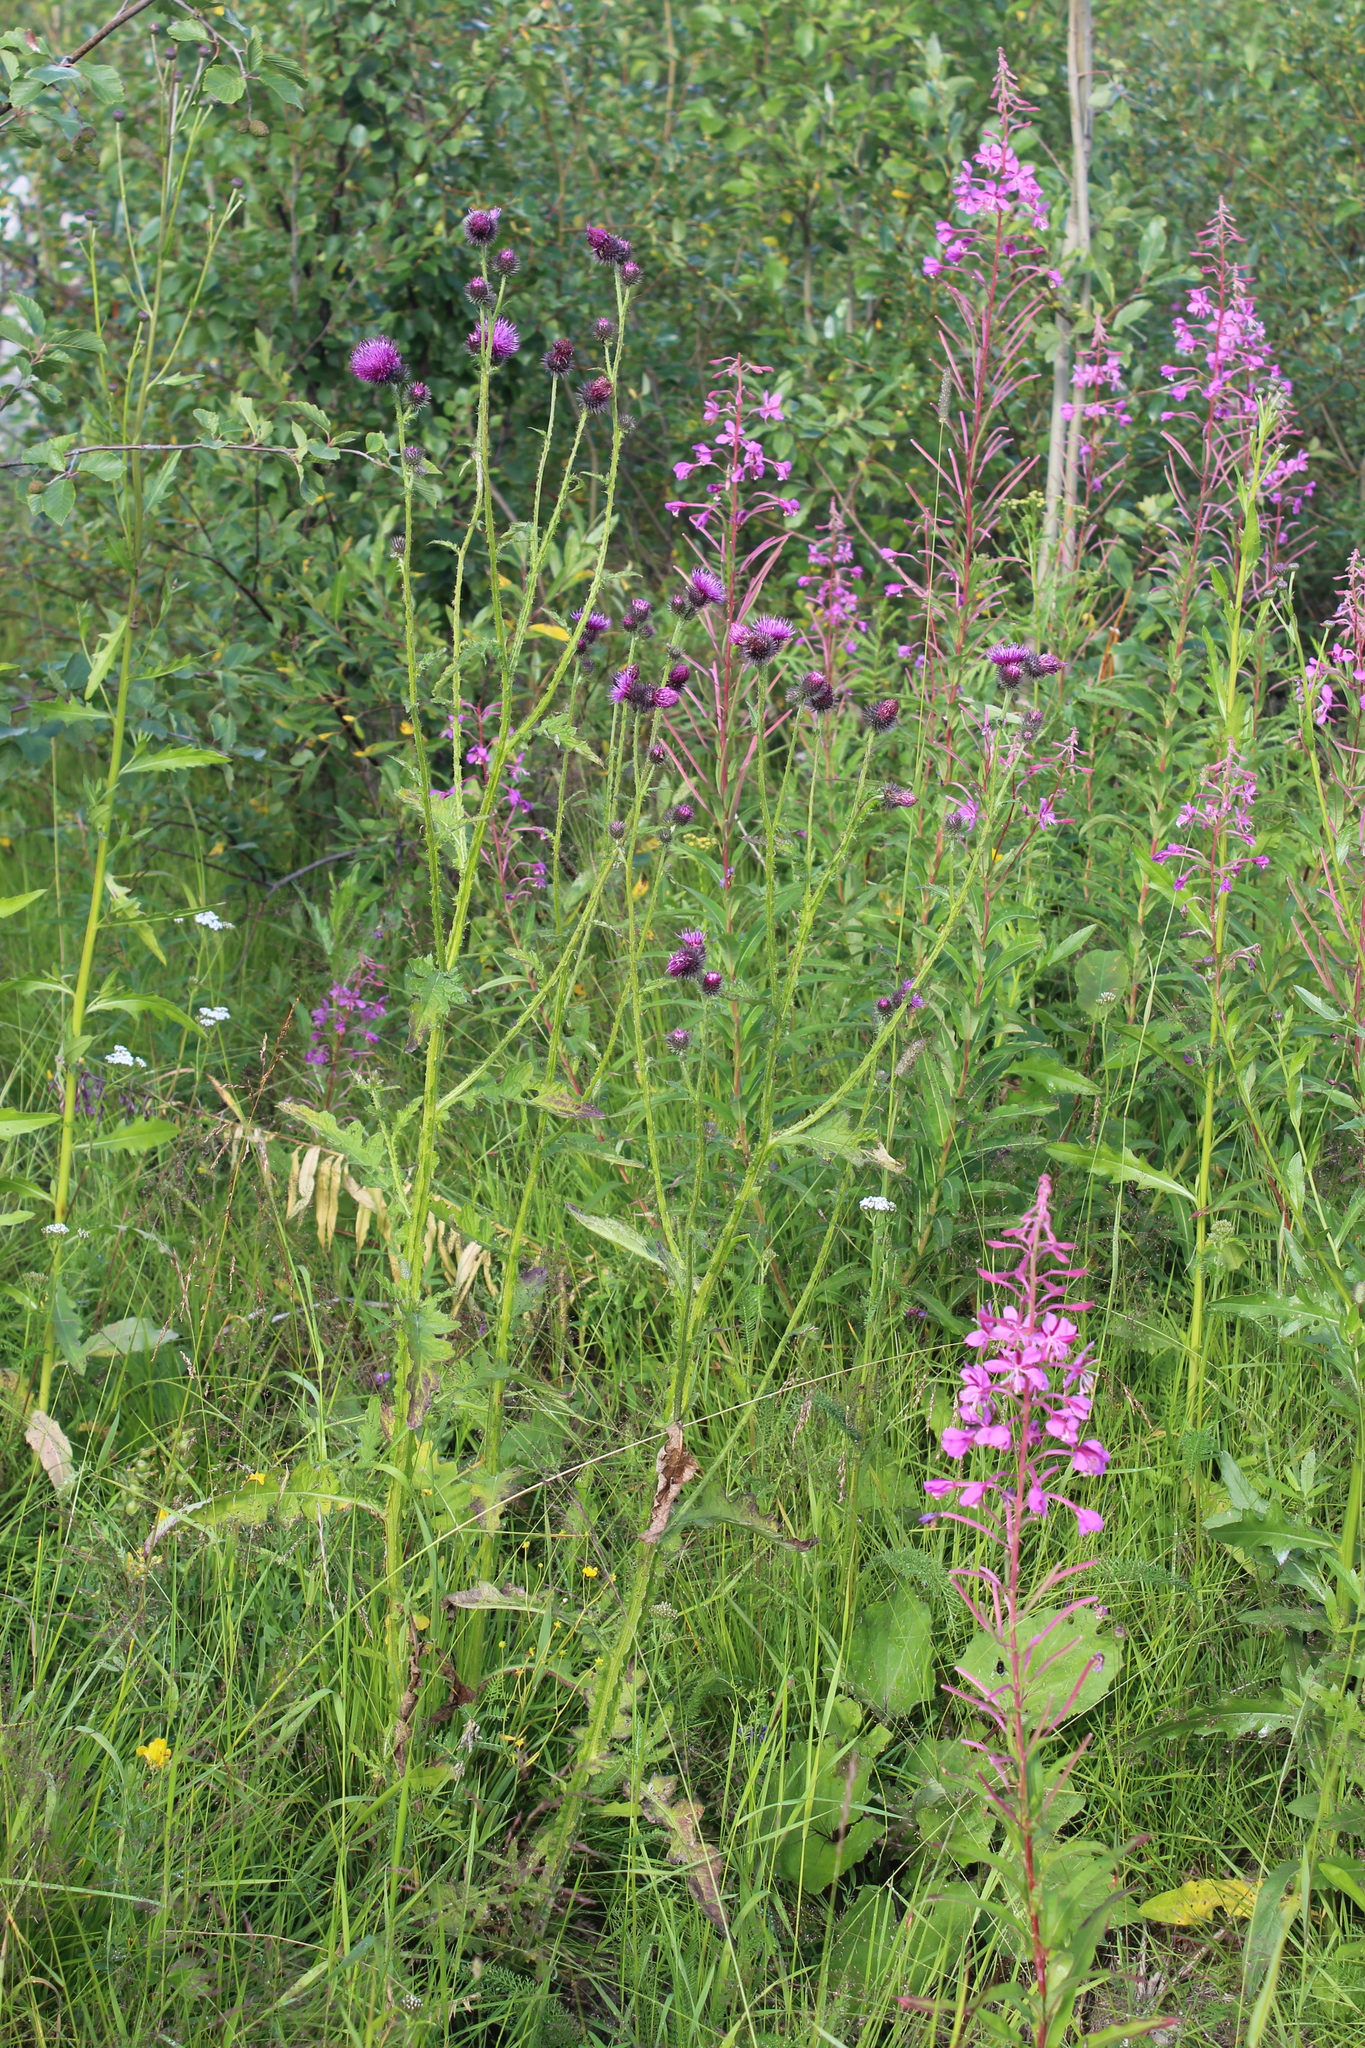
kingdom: Plantae
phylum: Tracheophyta
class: Magnoliopsida
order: Asterales
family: Asteraceae
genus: Carduus
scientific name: Carduus crispus
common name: Welted thistle
